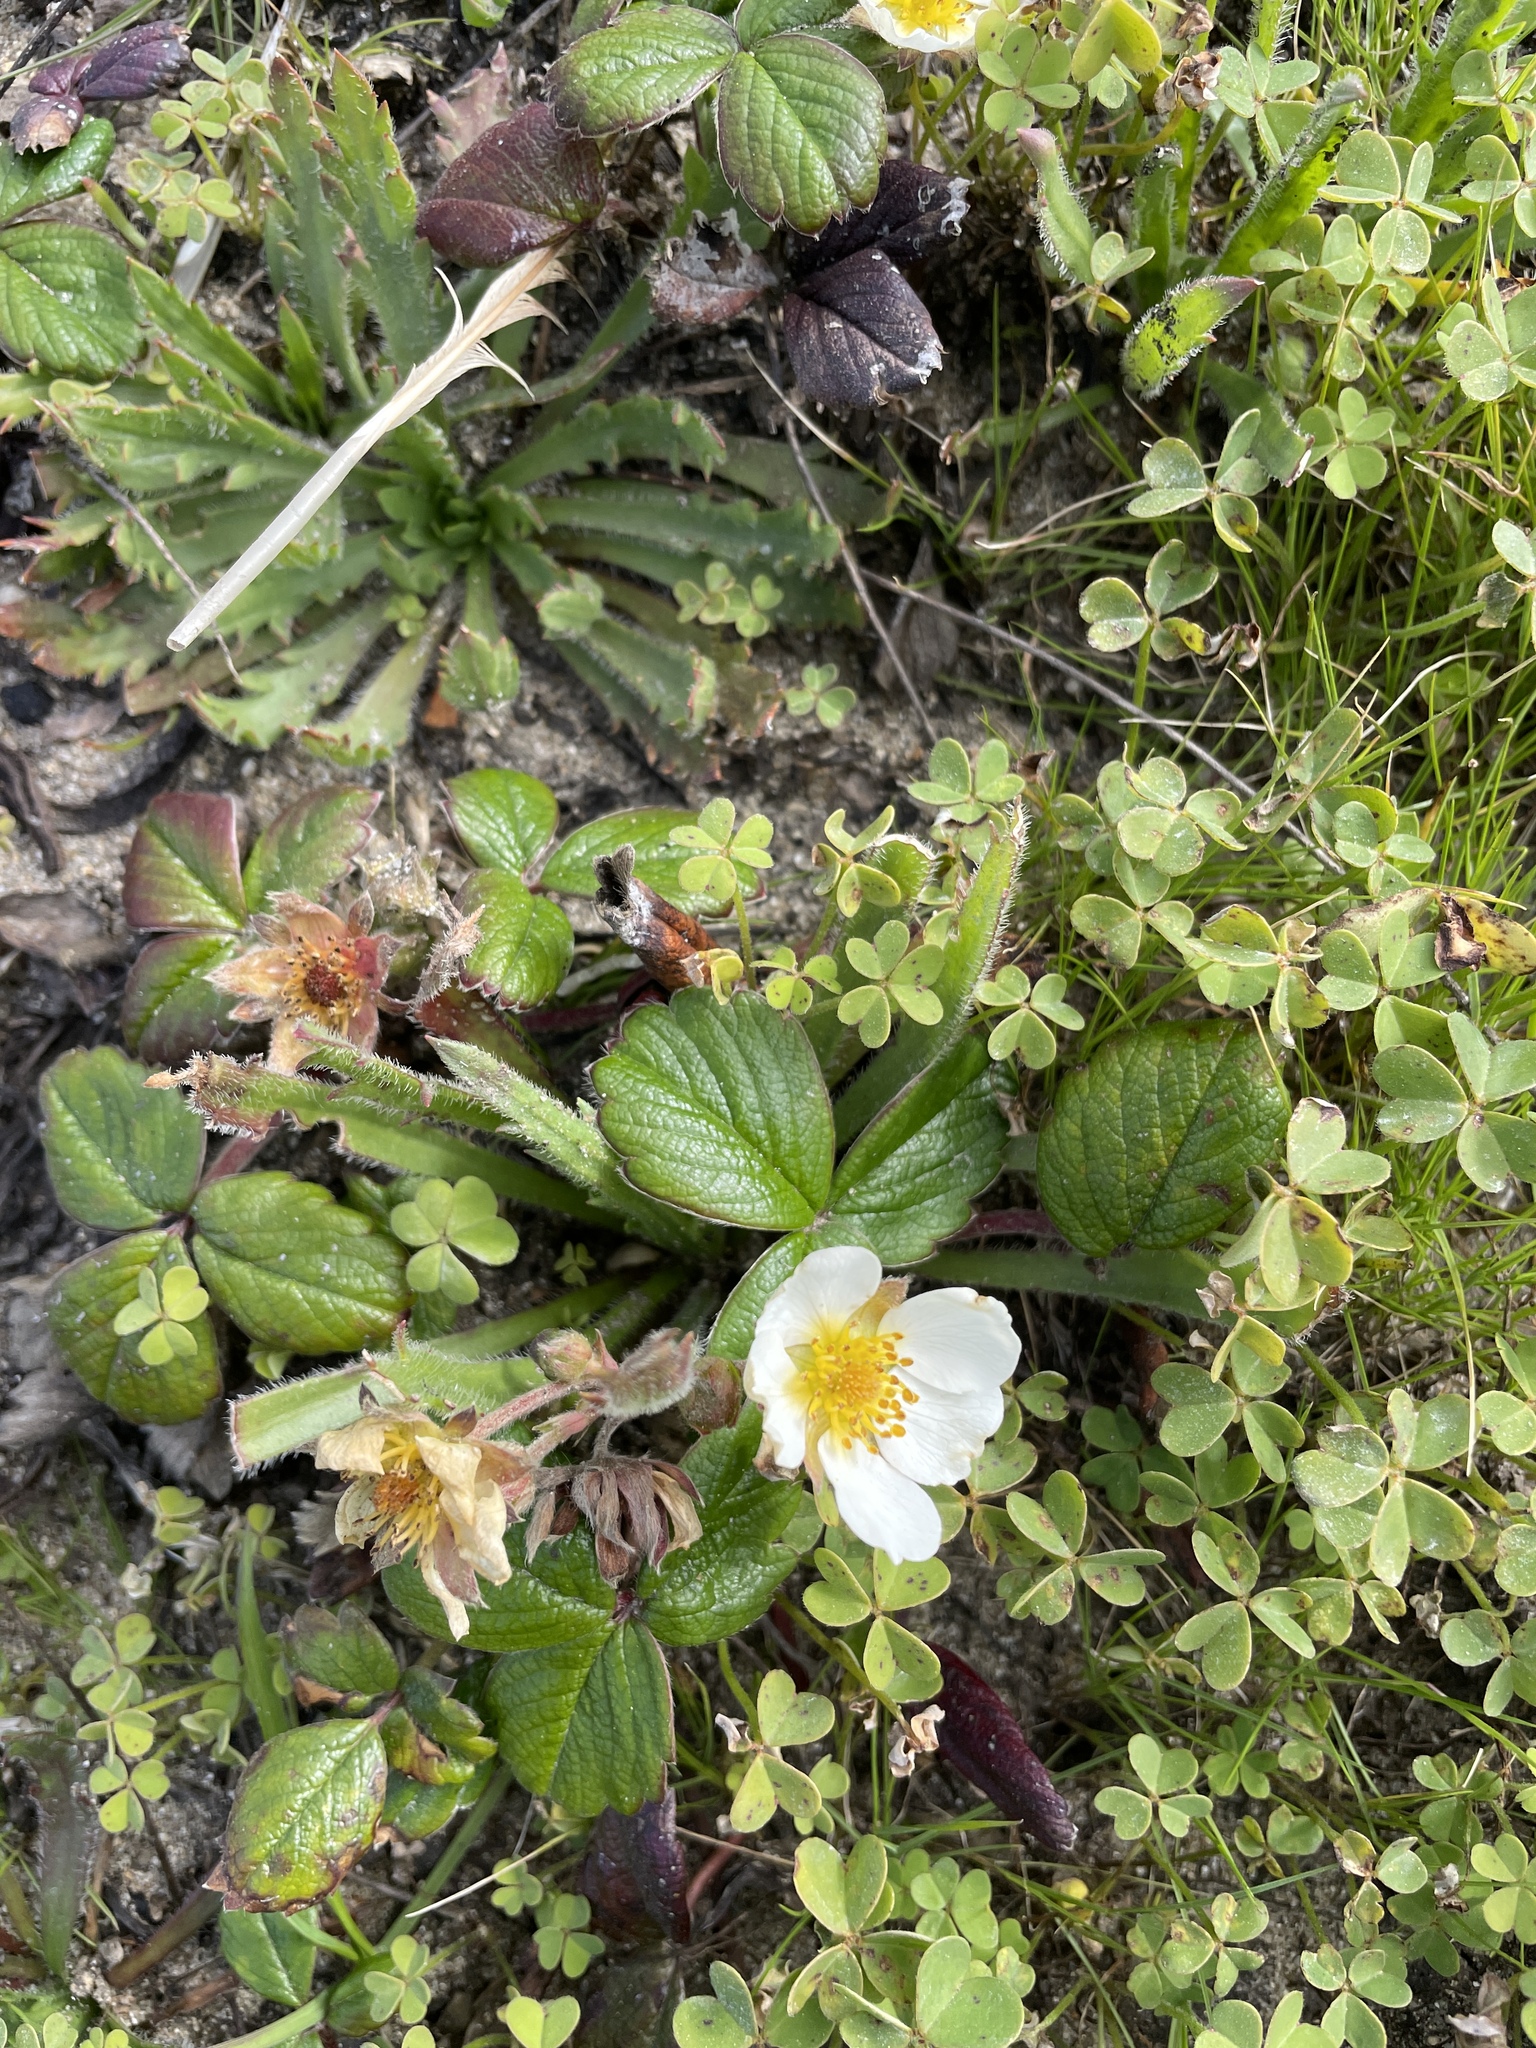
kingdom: Plantae
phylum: Tracheophyta
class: Magnoliopsida
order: Rosales
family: Rosaceae
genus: Fragaria
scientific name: Fragaria chiloensis
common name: Beach strawberry
